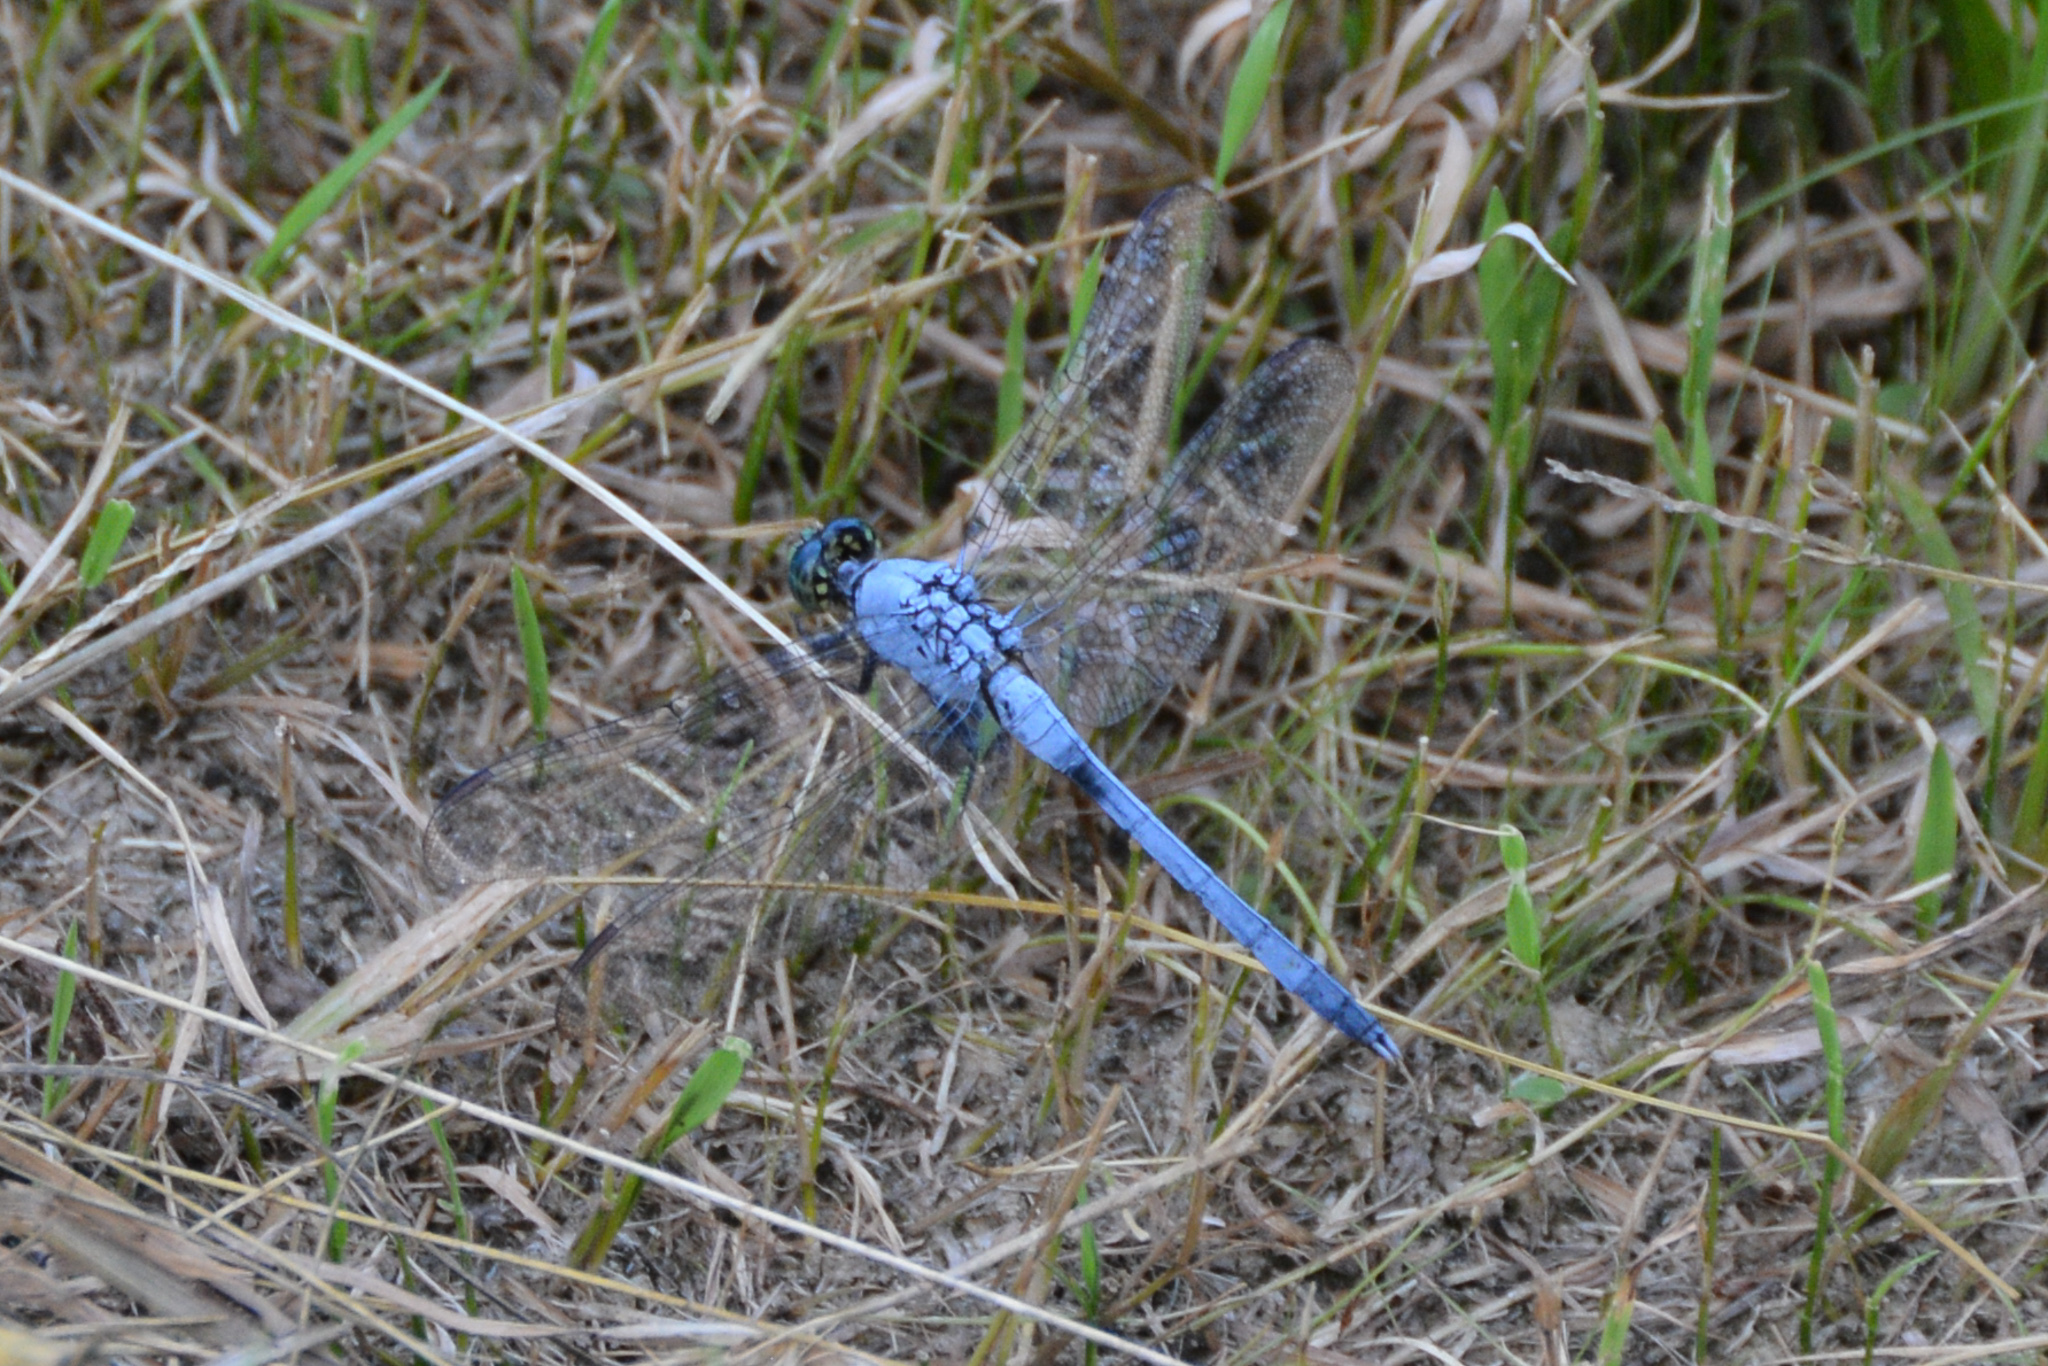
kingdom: Animalia
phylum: Arthropoda
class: Insecta
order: Odonata
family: Libellulidae
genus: Erythemis
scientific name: Erythemis simplicicollis
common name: Eastern pondhawk
